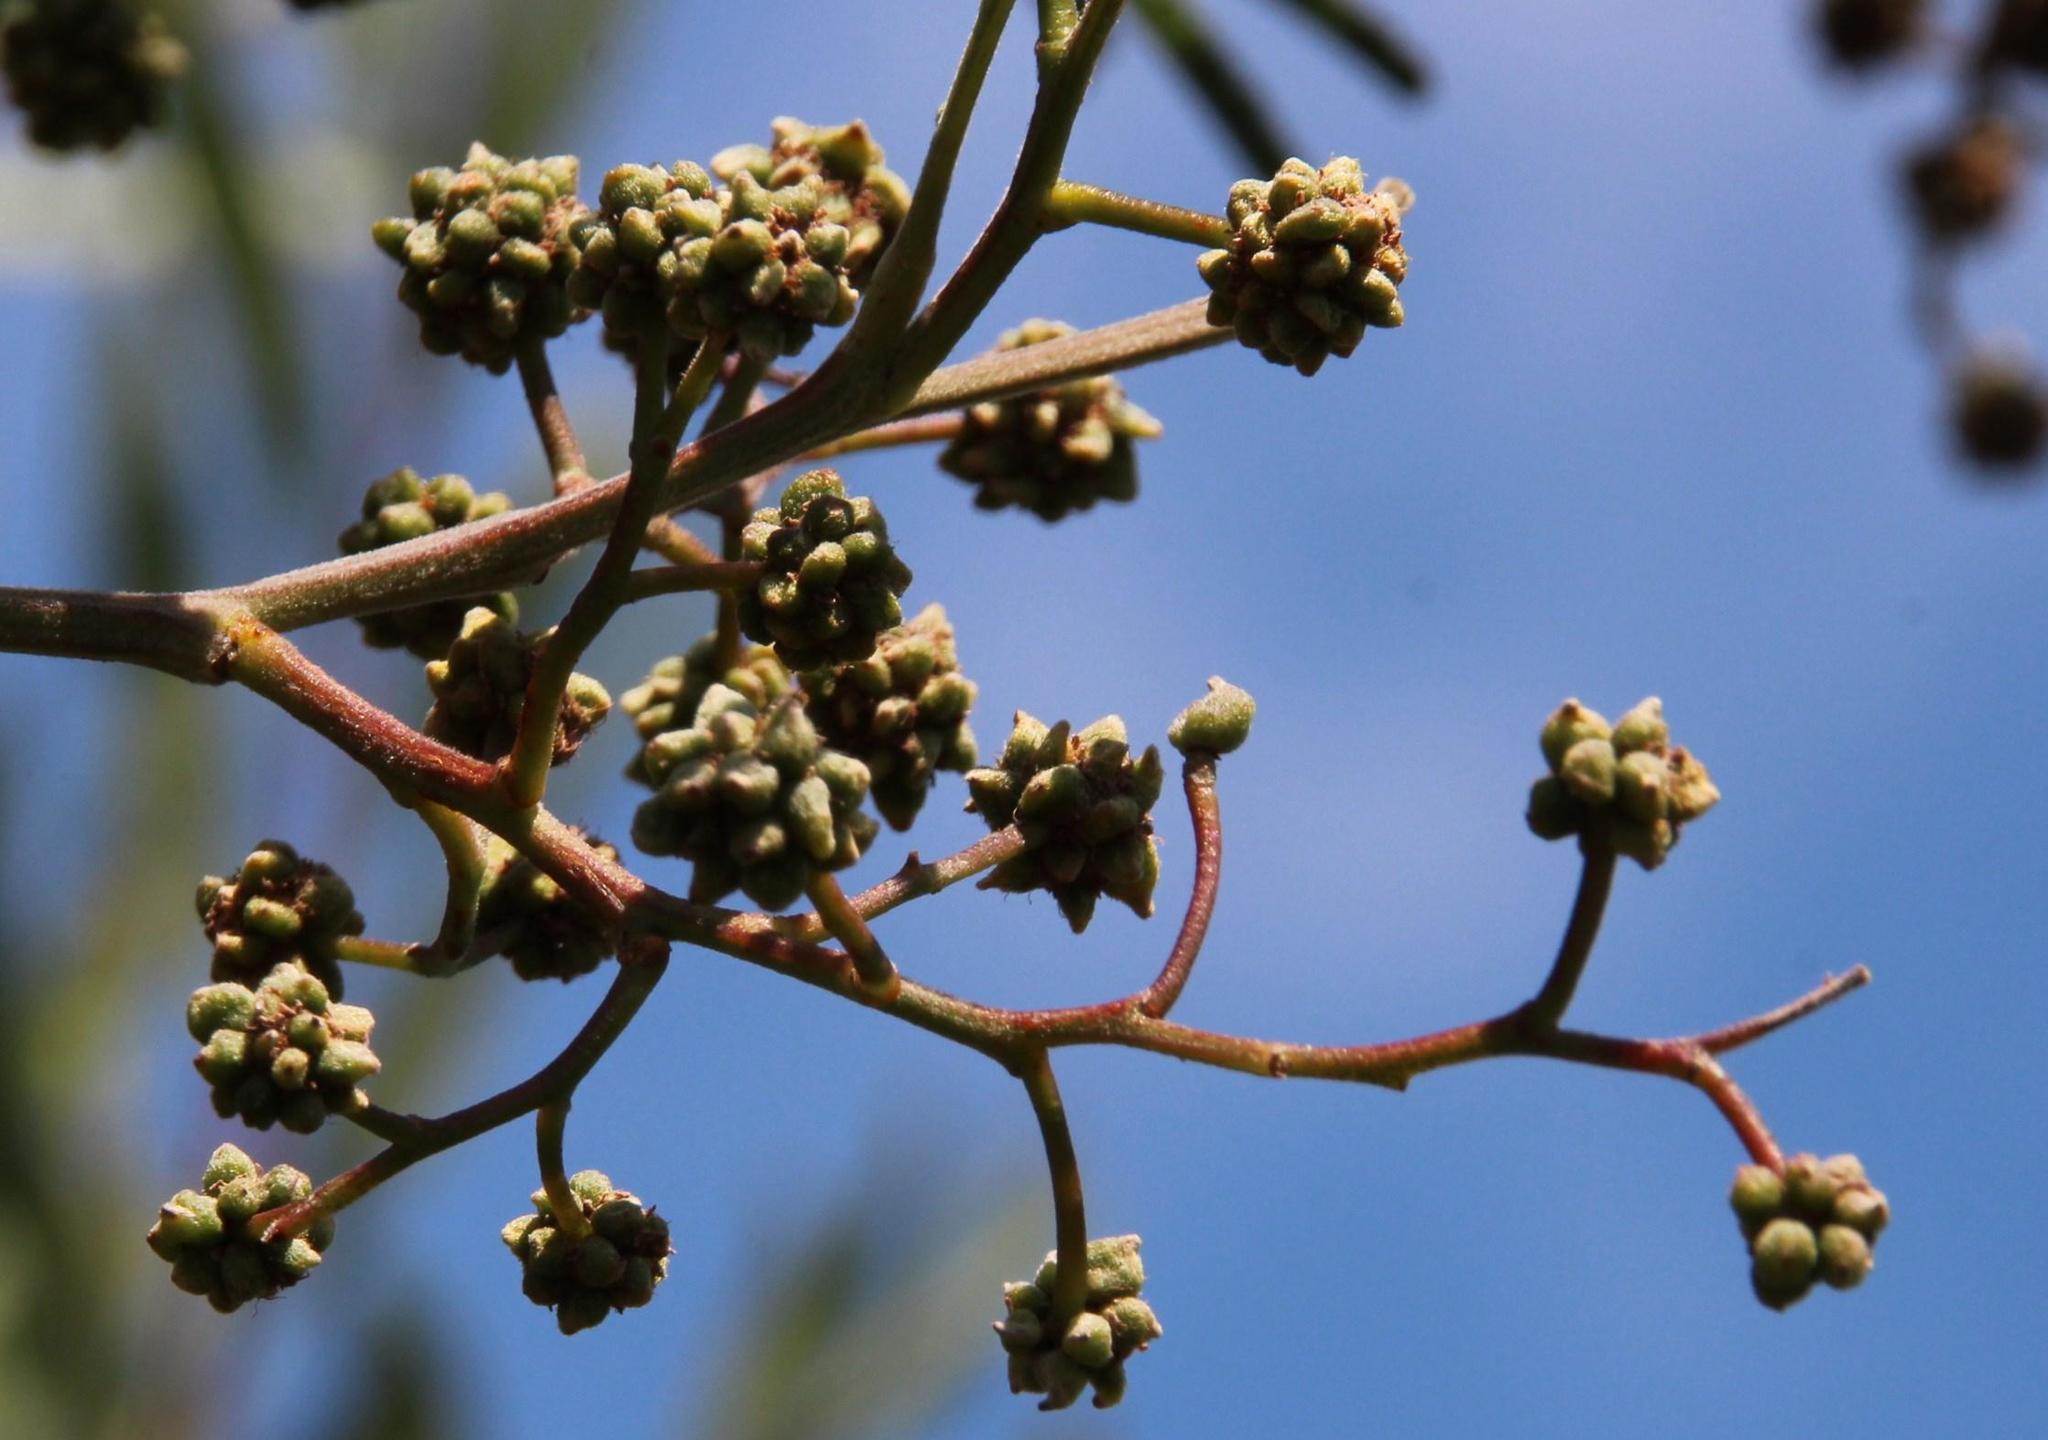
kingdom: Animalia
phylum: Arthropoda
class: Insecta
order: Diptera
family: Cecidomyiidae
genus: Dasineura
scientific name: Dasineura rubiformis
